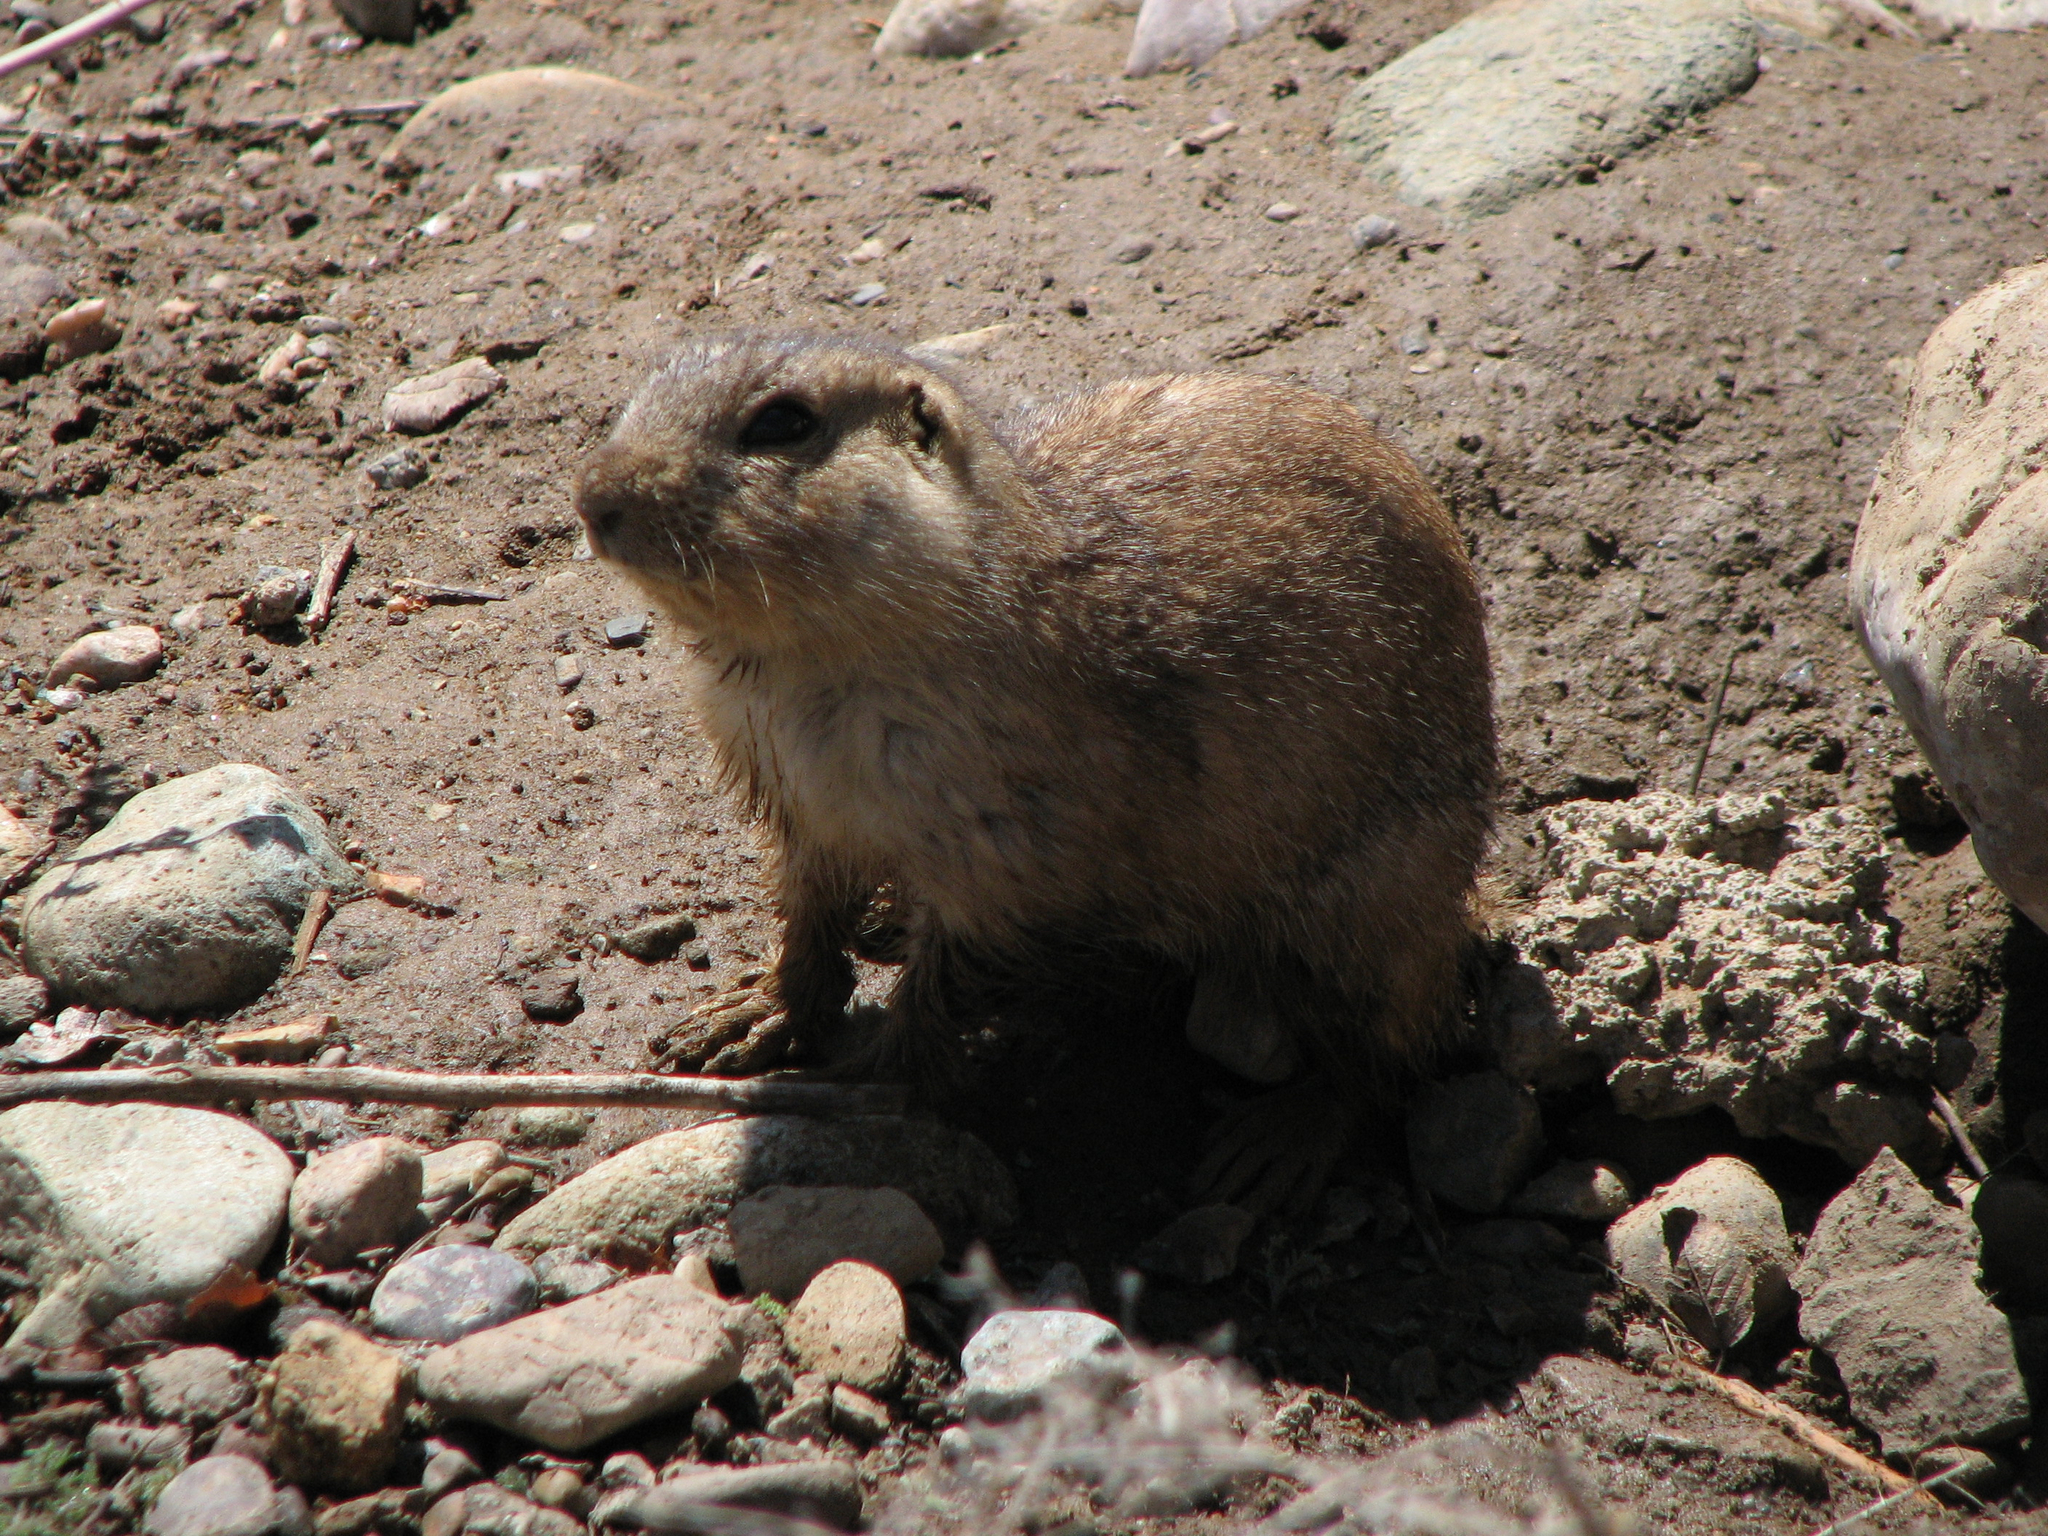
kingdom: Animalia
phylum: Chordata
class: Mammalia
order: Rodentia
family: Sciuridae
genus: Cynomys
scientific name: Cynomys gunnisoni
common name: Gunnison's prairie dog
